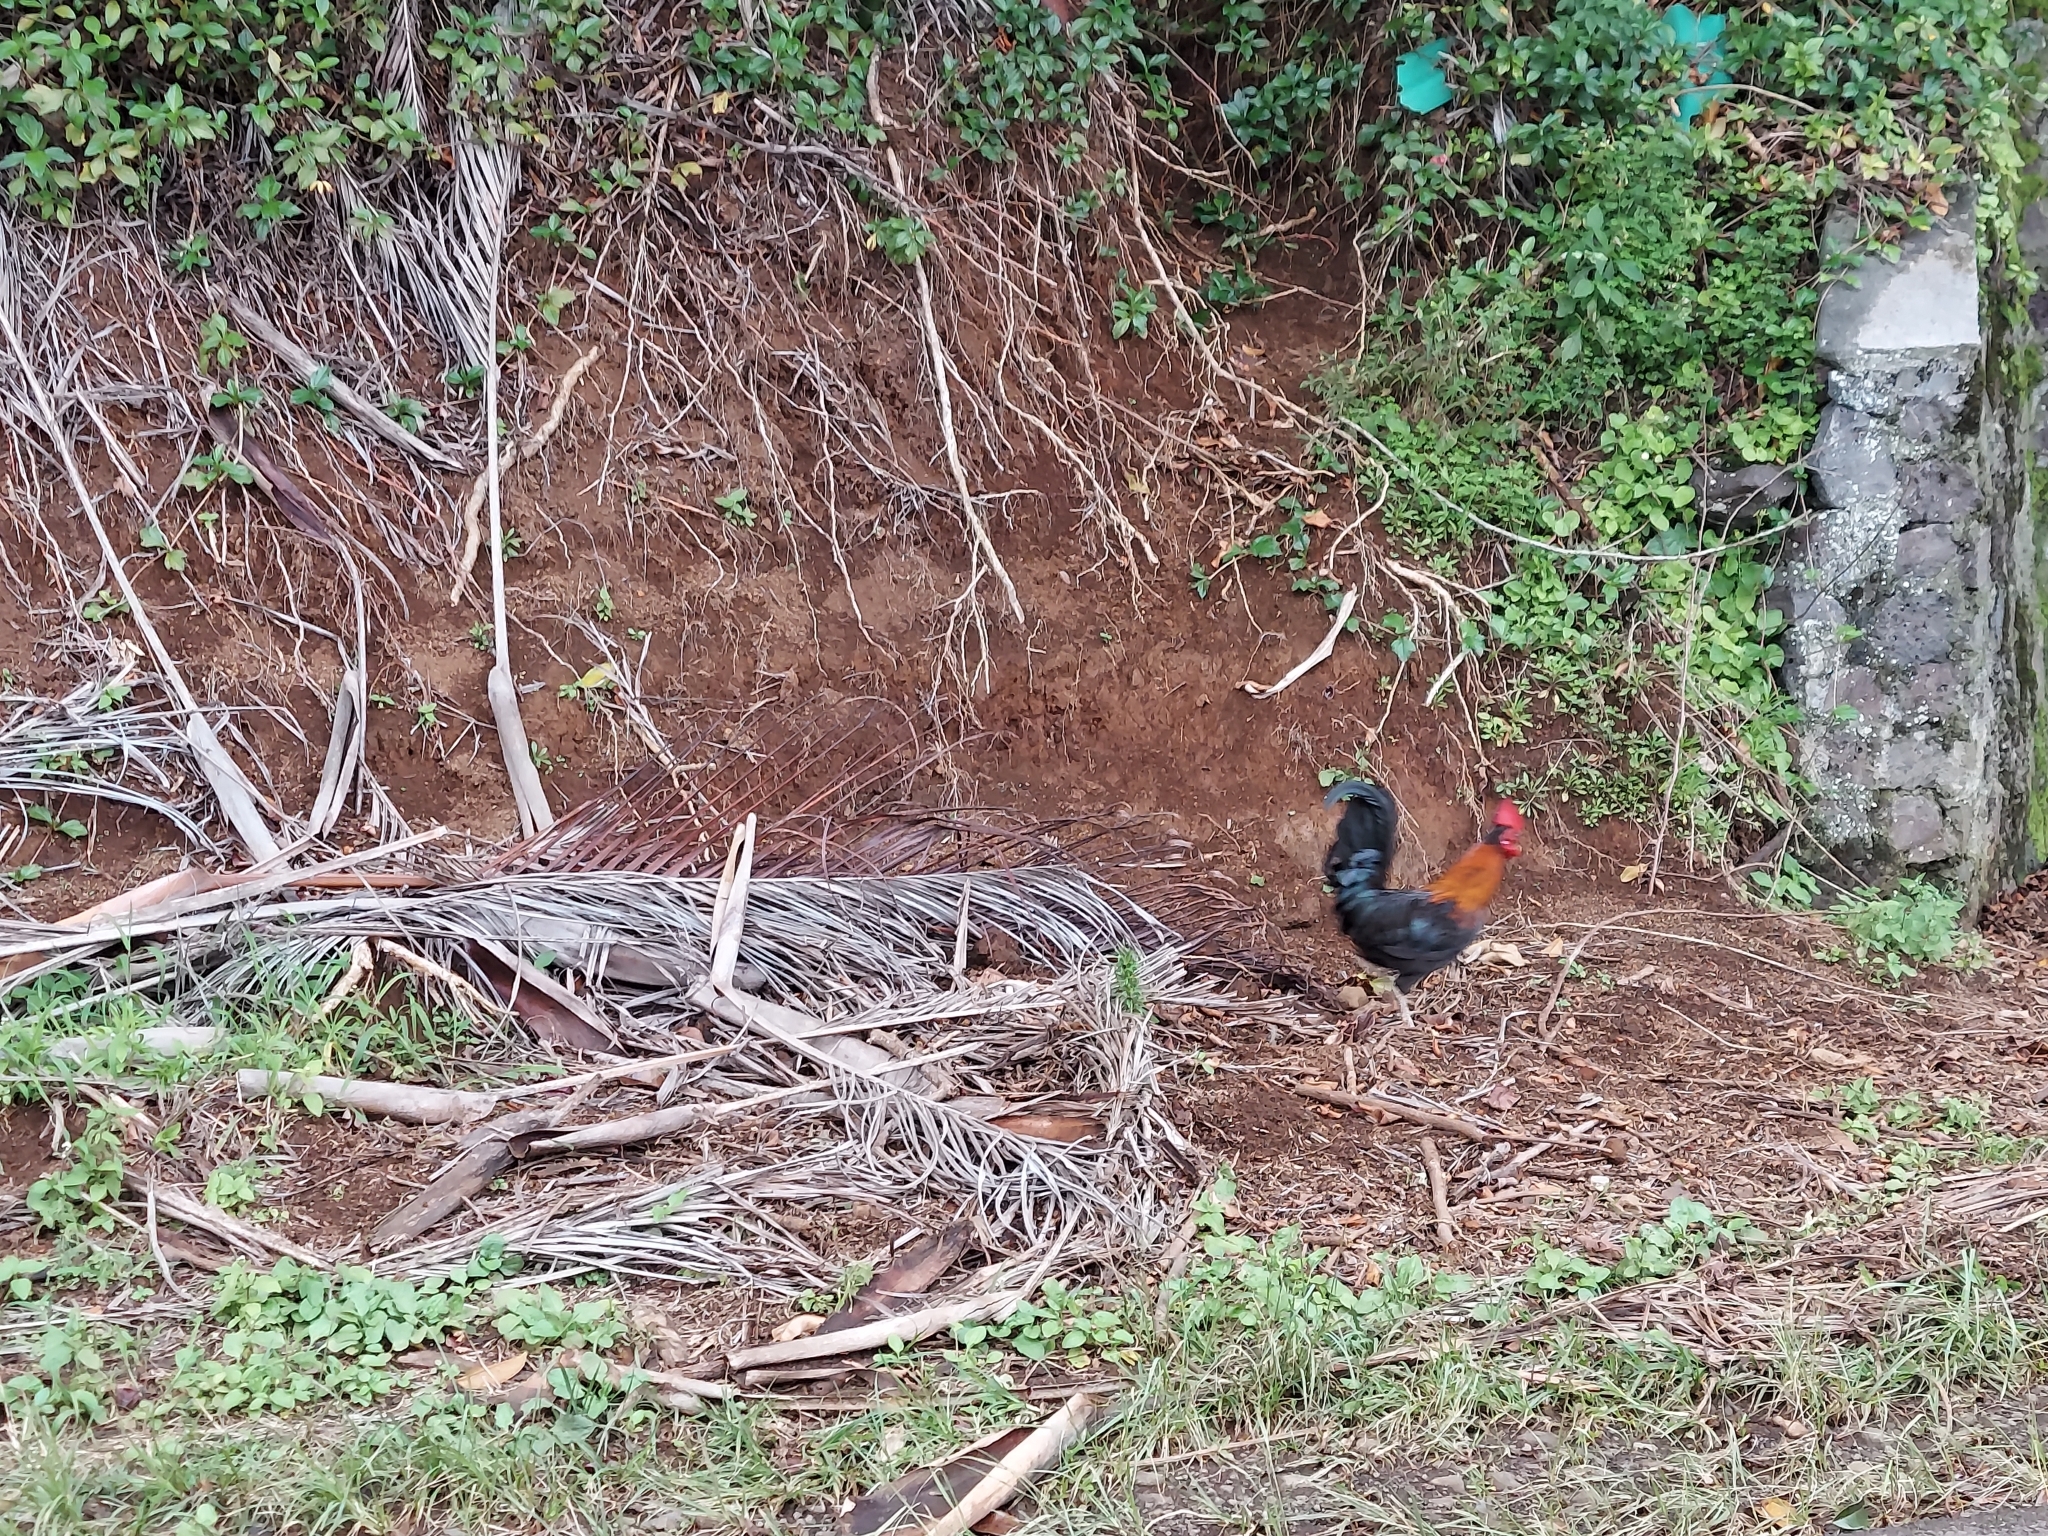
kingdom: Animalia
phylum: Chordata
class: Aves
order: Galliformes
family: Phasianidae
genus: Gallus
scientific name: Gallus gallus
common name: Red junglefowl
